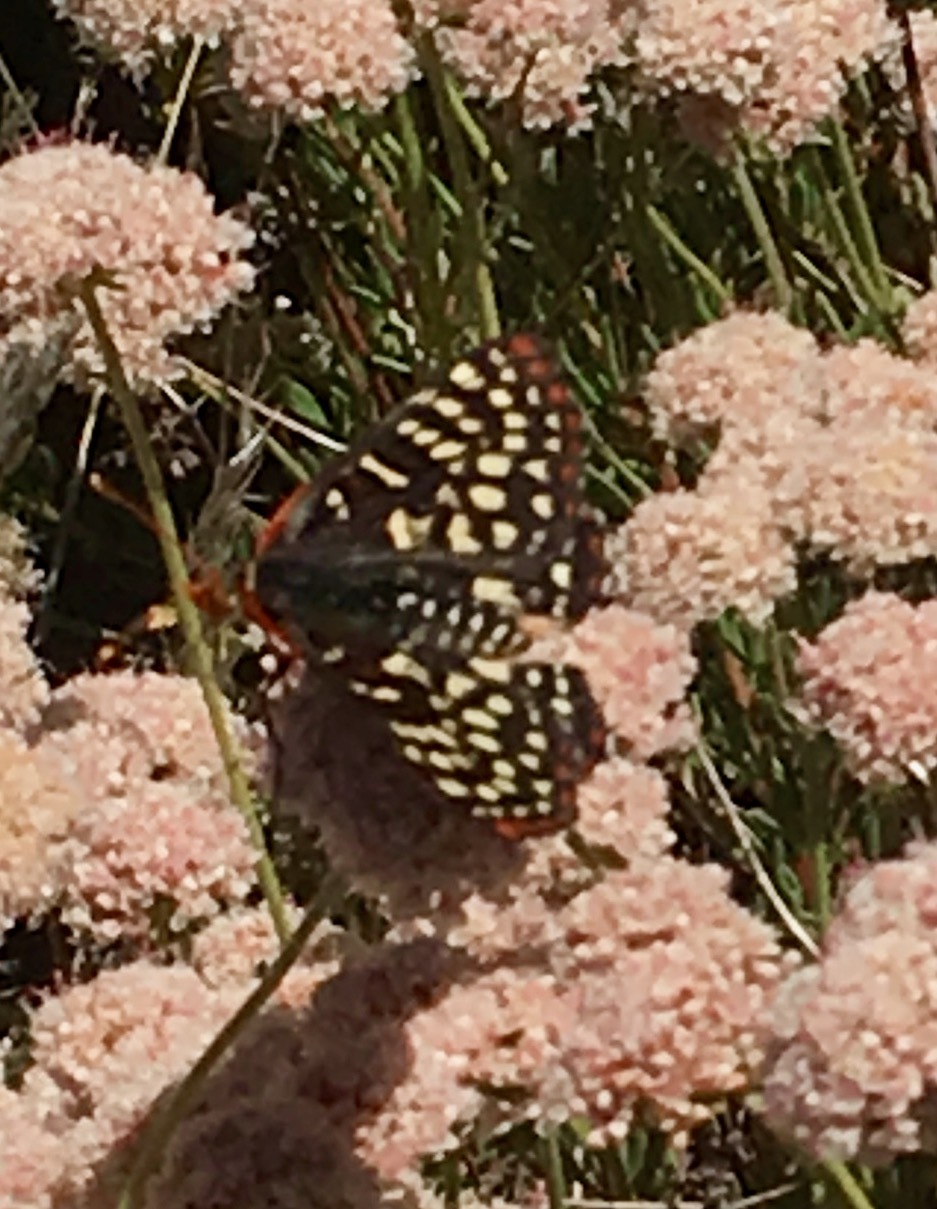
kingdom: Animalia
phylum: Arthropoda
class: Insecta
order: Lepidoptera
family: Nymphalidae
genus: Occidryas
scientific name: Occidryas chalcedona
